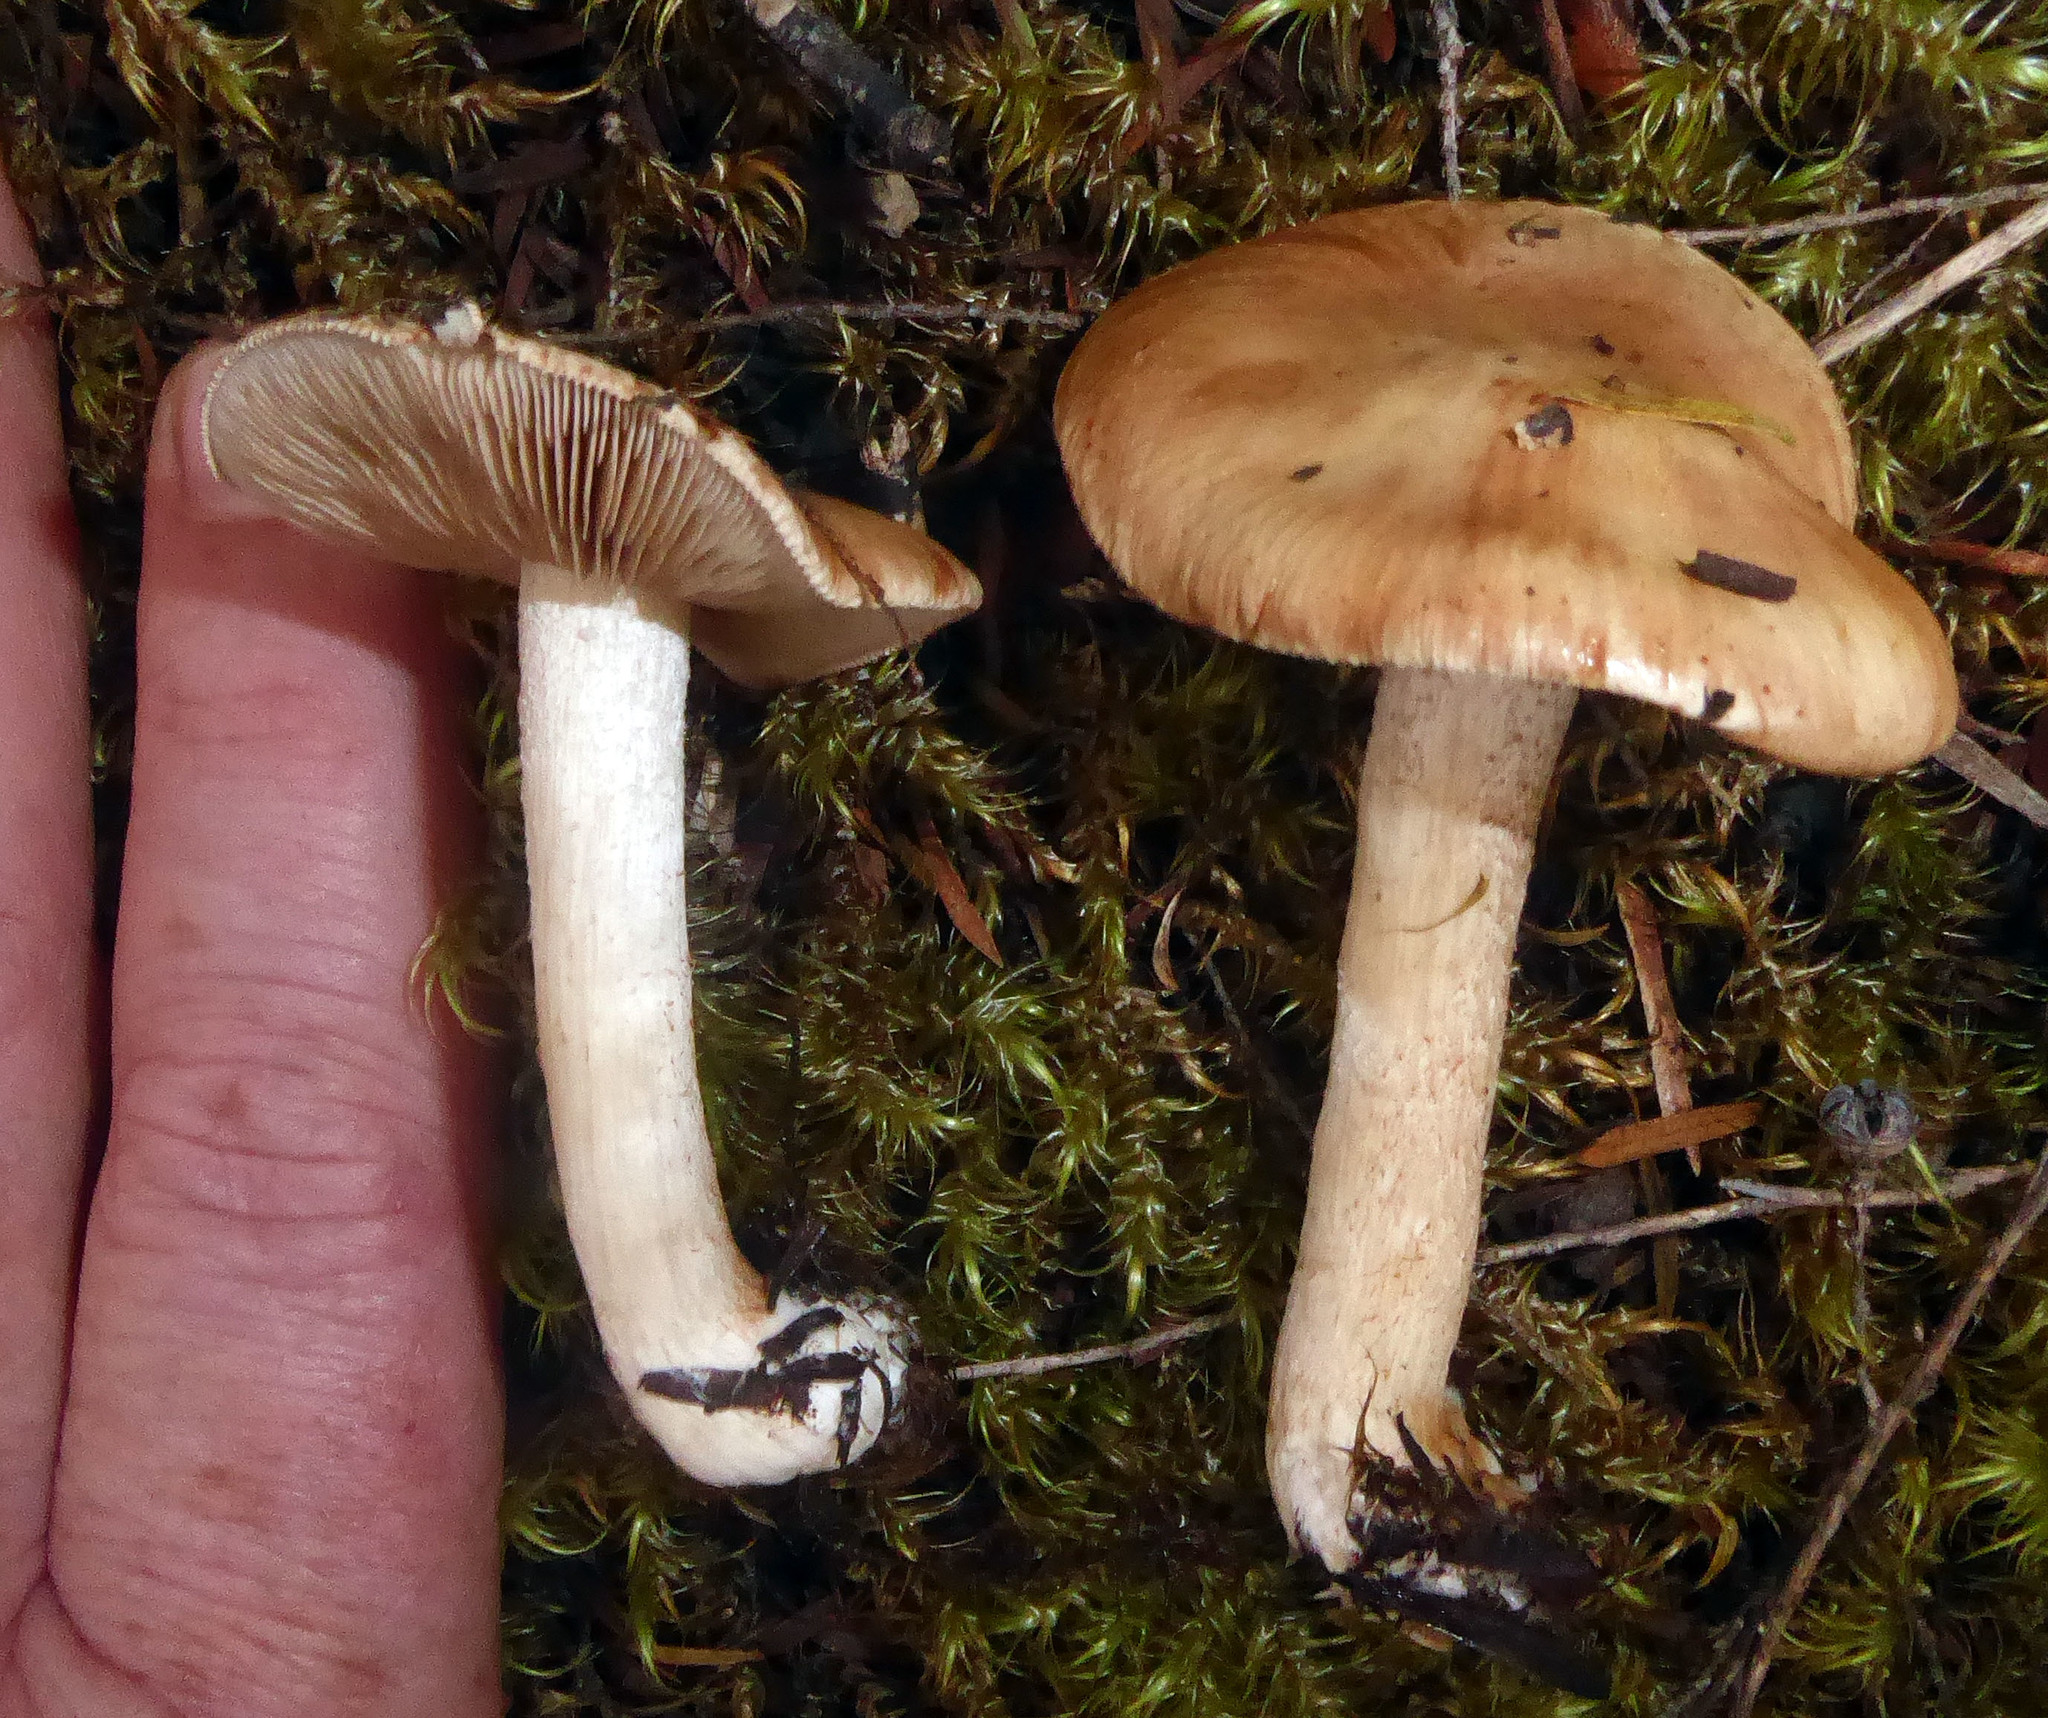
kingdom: Fungi
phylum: Basidiomycota
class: Agaricomycetes
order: Agaricales
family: Hymenogastraceae
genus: Hebeloma
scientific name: Hebeloma lacteocoffeatum
